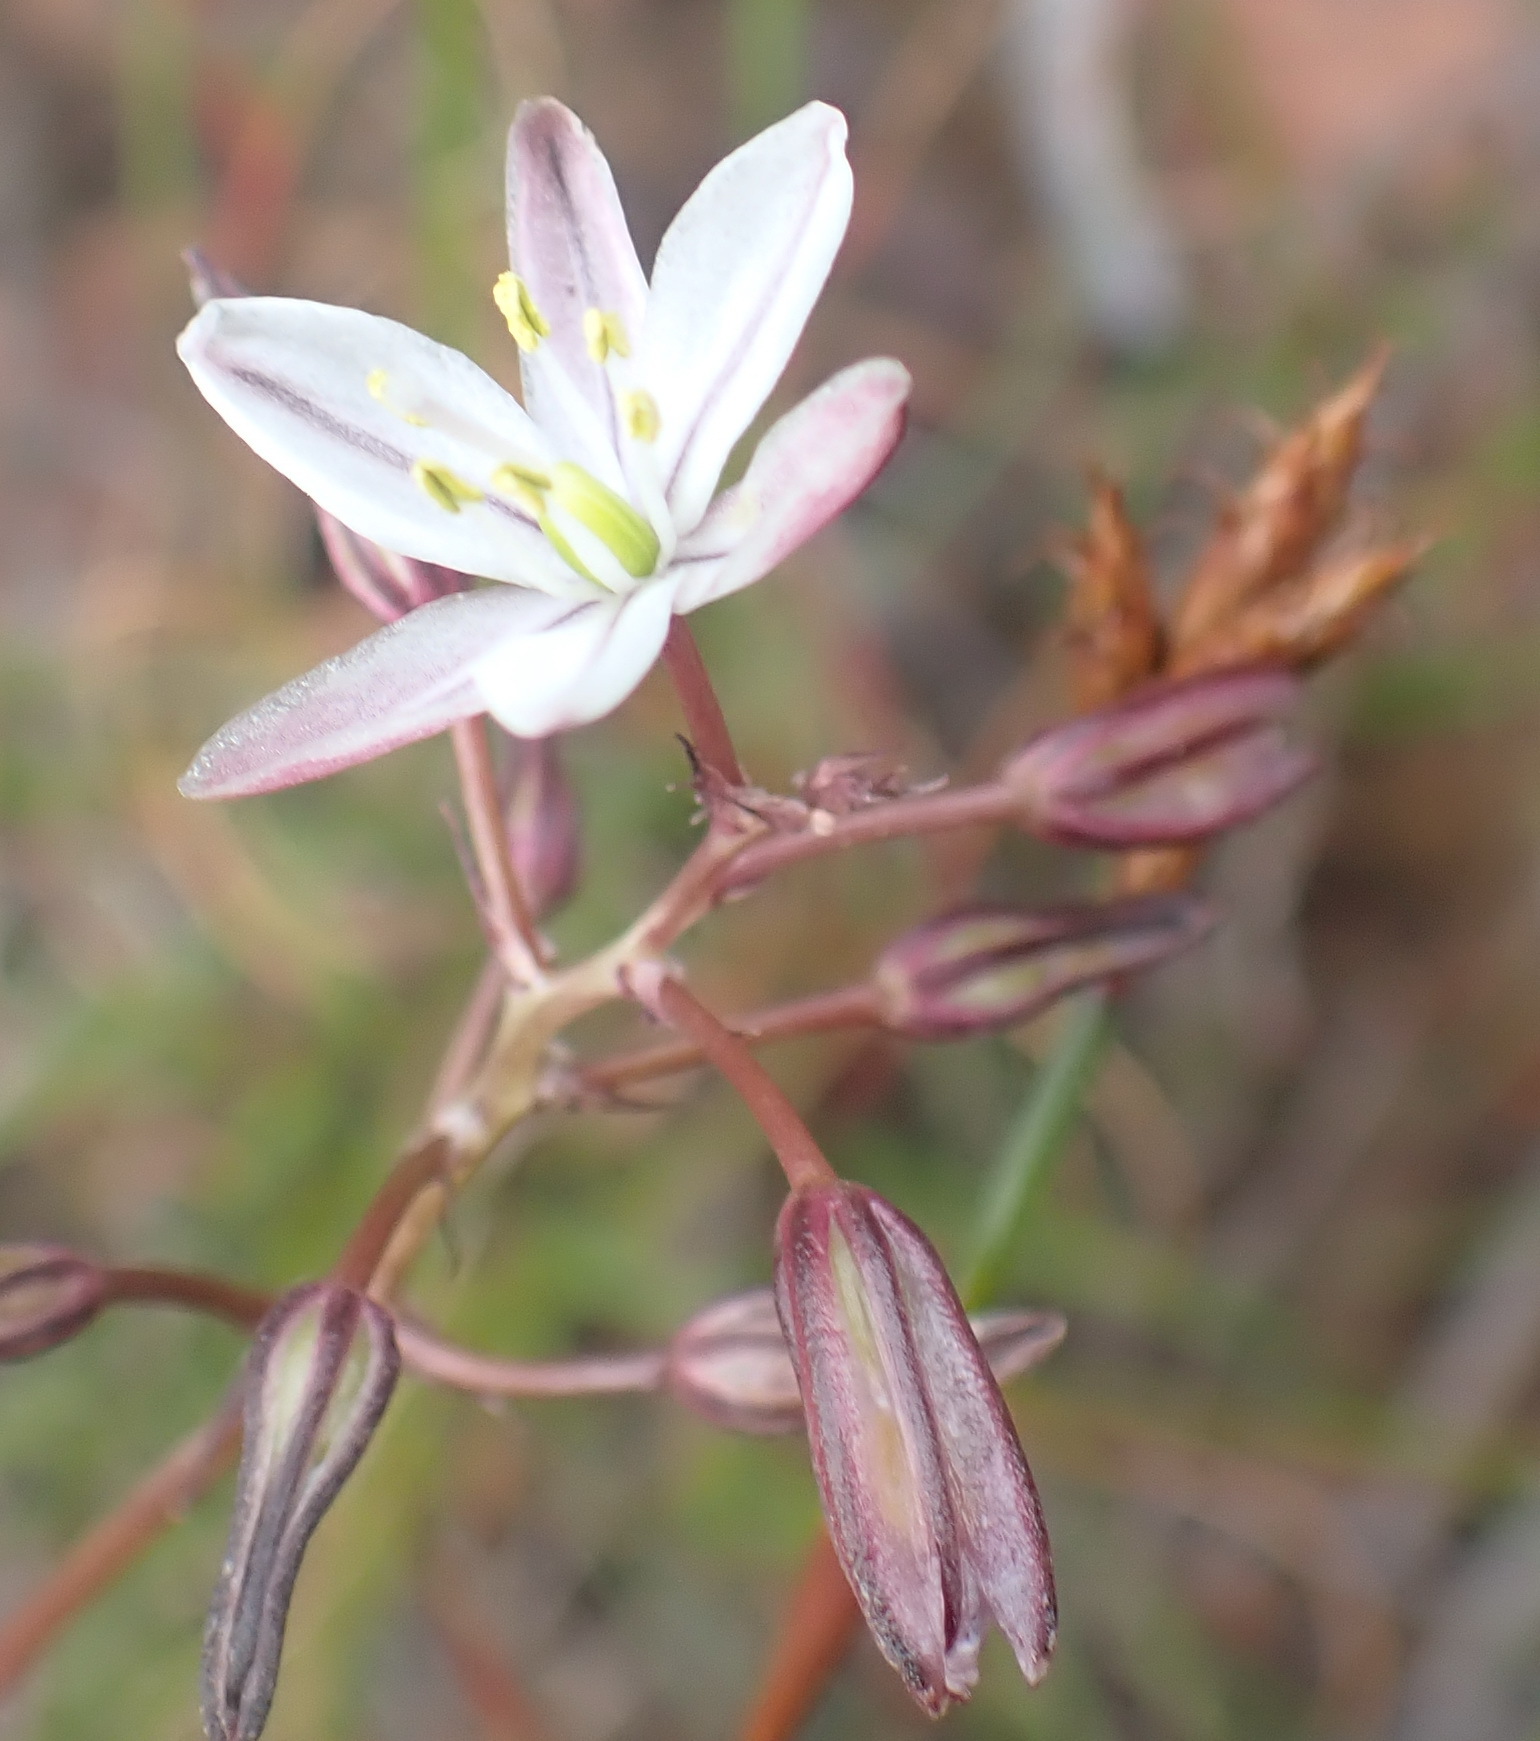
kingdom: Plantae
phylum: Tracheophyta
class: Liliopsida
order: Asparagales
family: Asparagaceae
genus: Drimia
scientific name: Drimia exuviata
